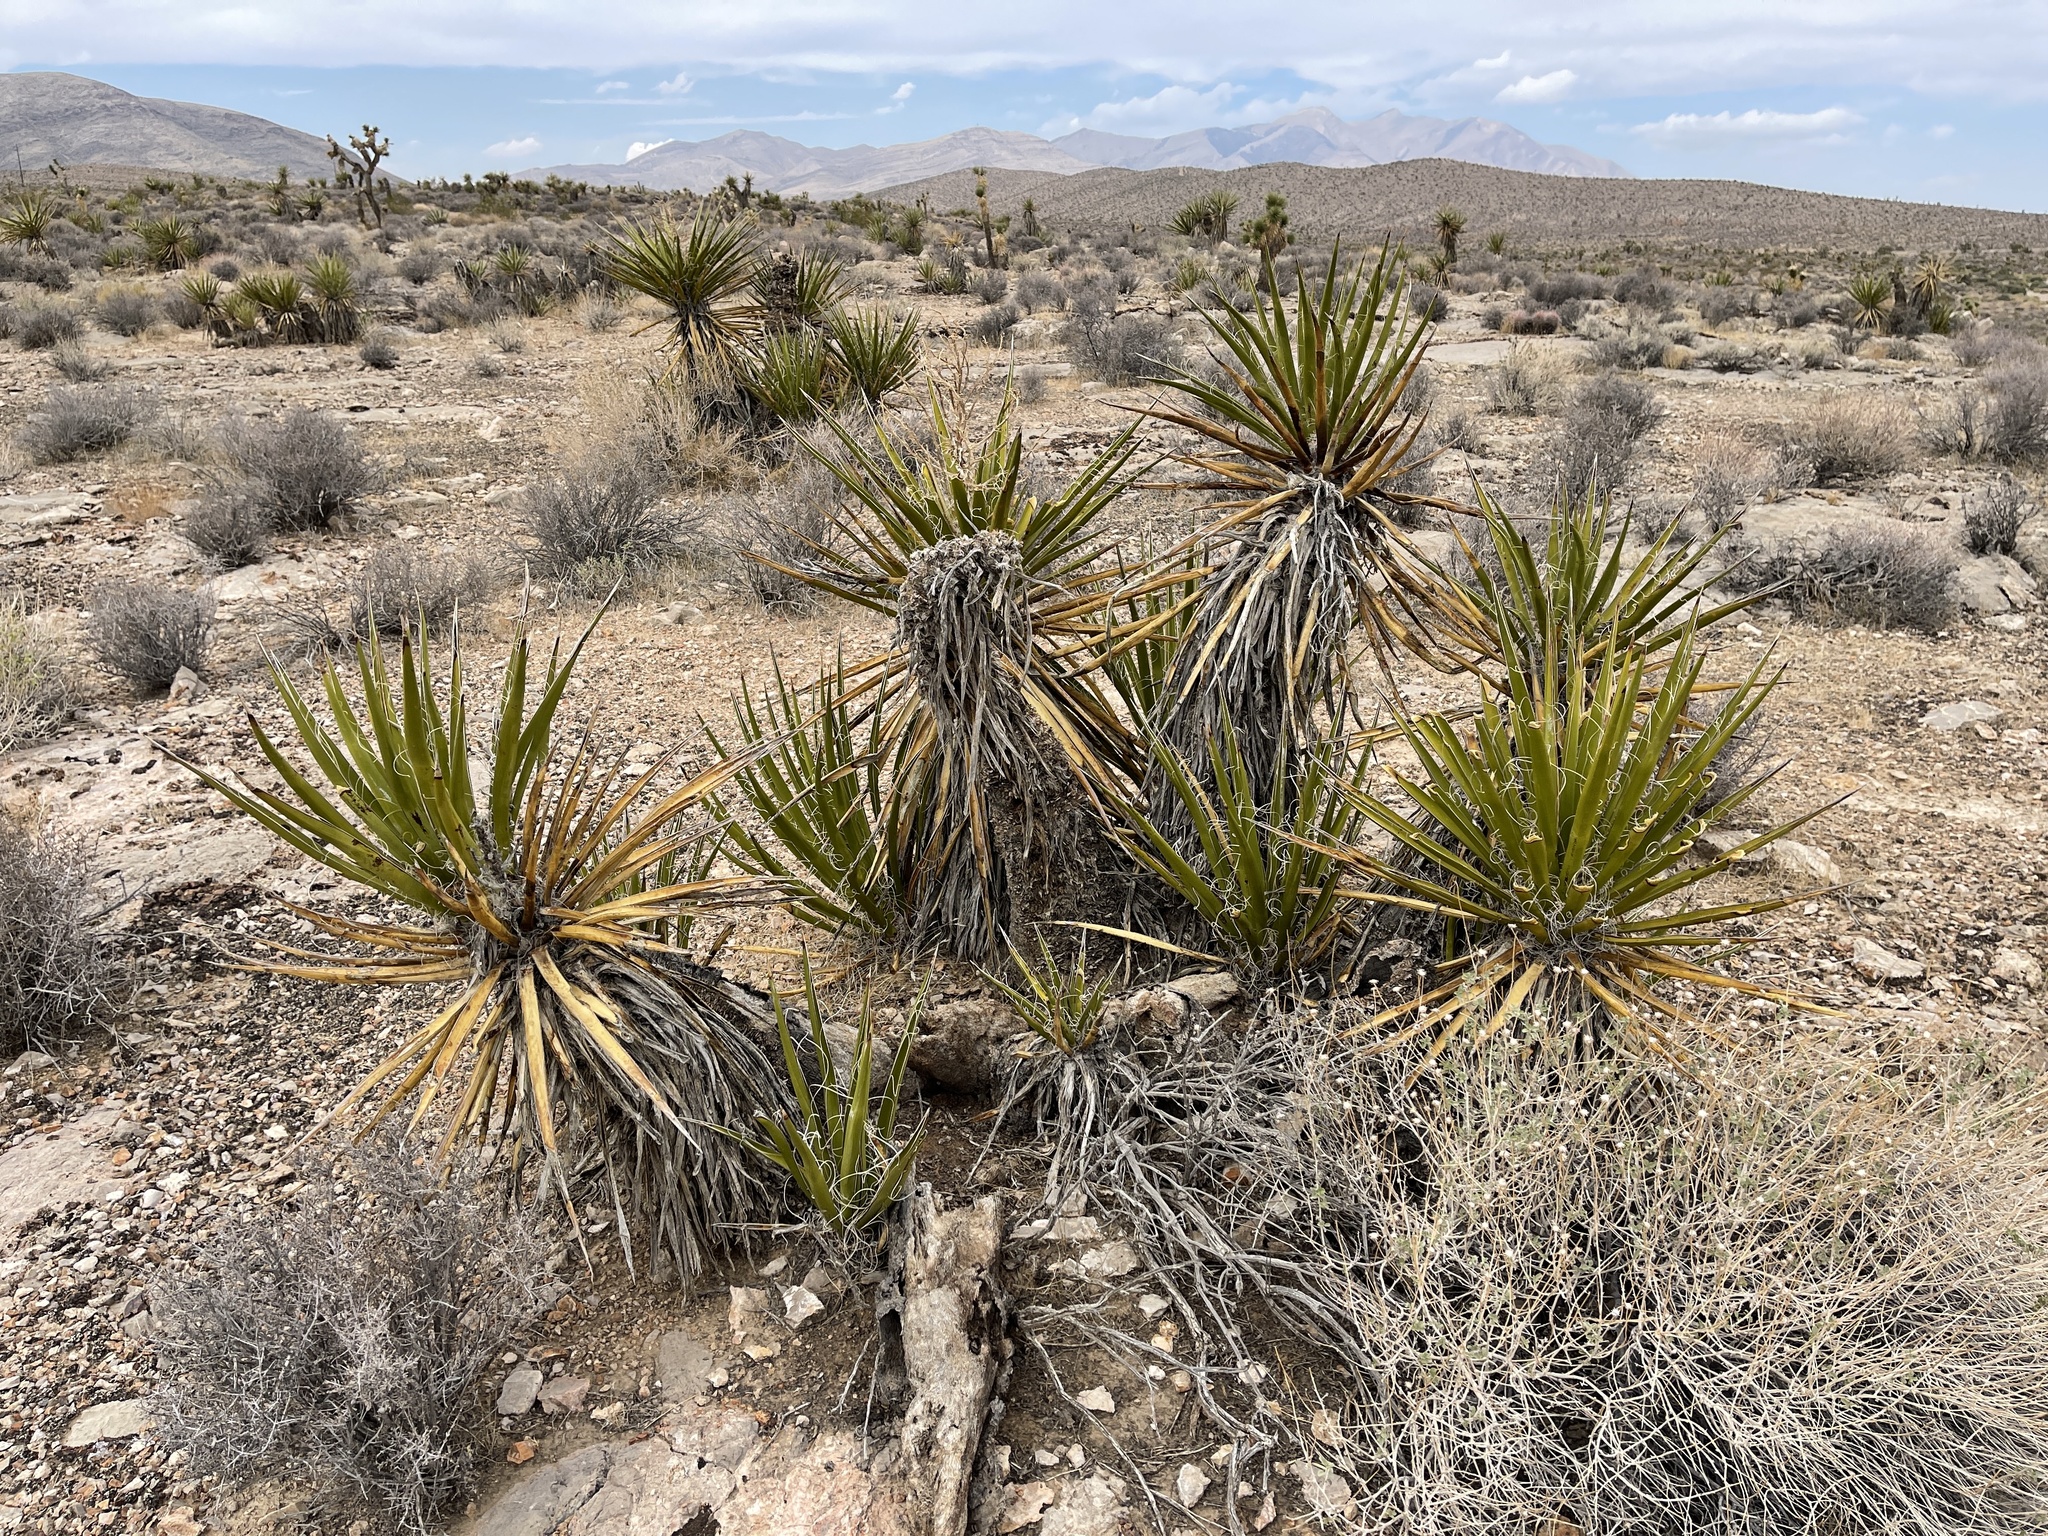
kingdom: Plantae
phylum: Tracheophyta
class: Liliopsida
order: Asparagales
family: Asparagaceae
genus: Yucca
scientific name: Yucca schidigera
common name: Mojave yucca
